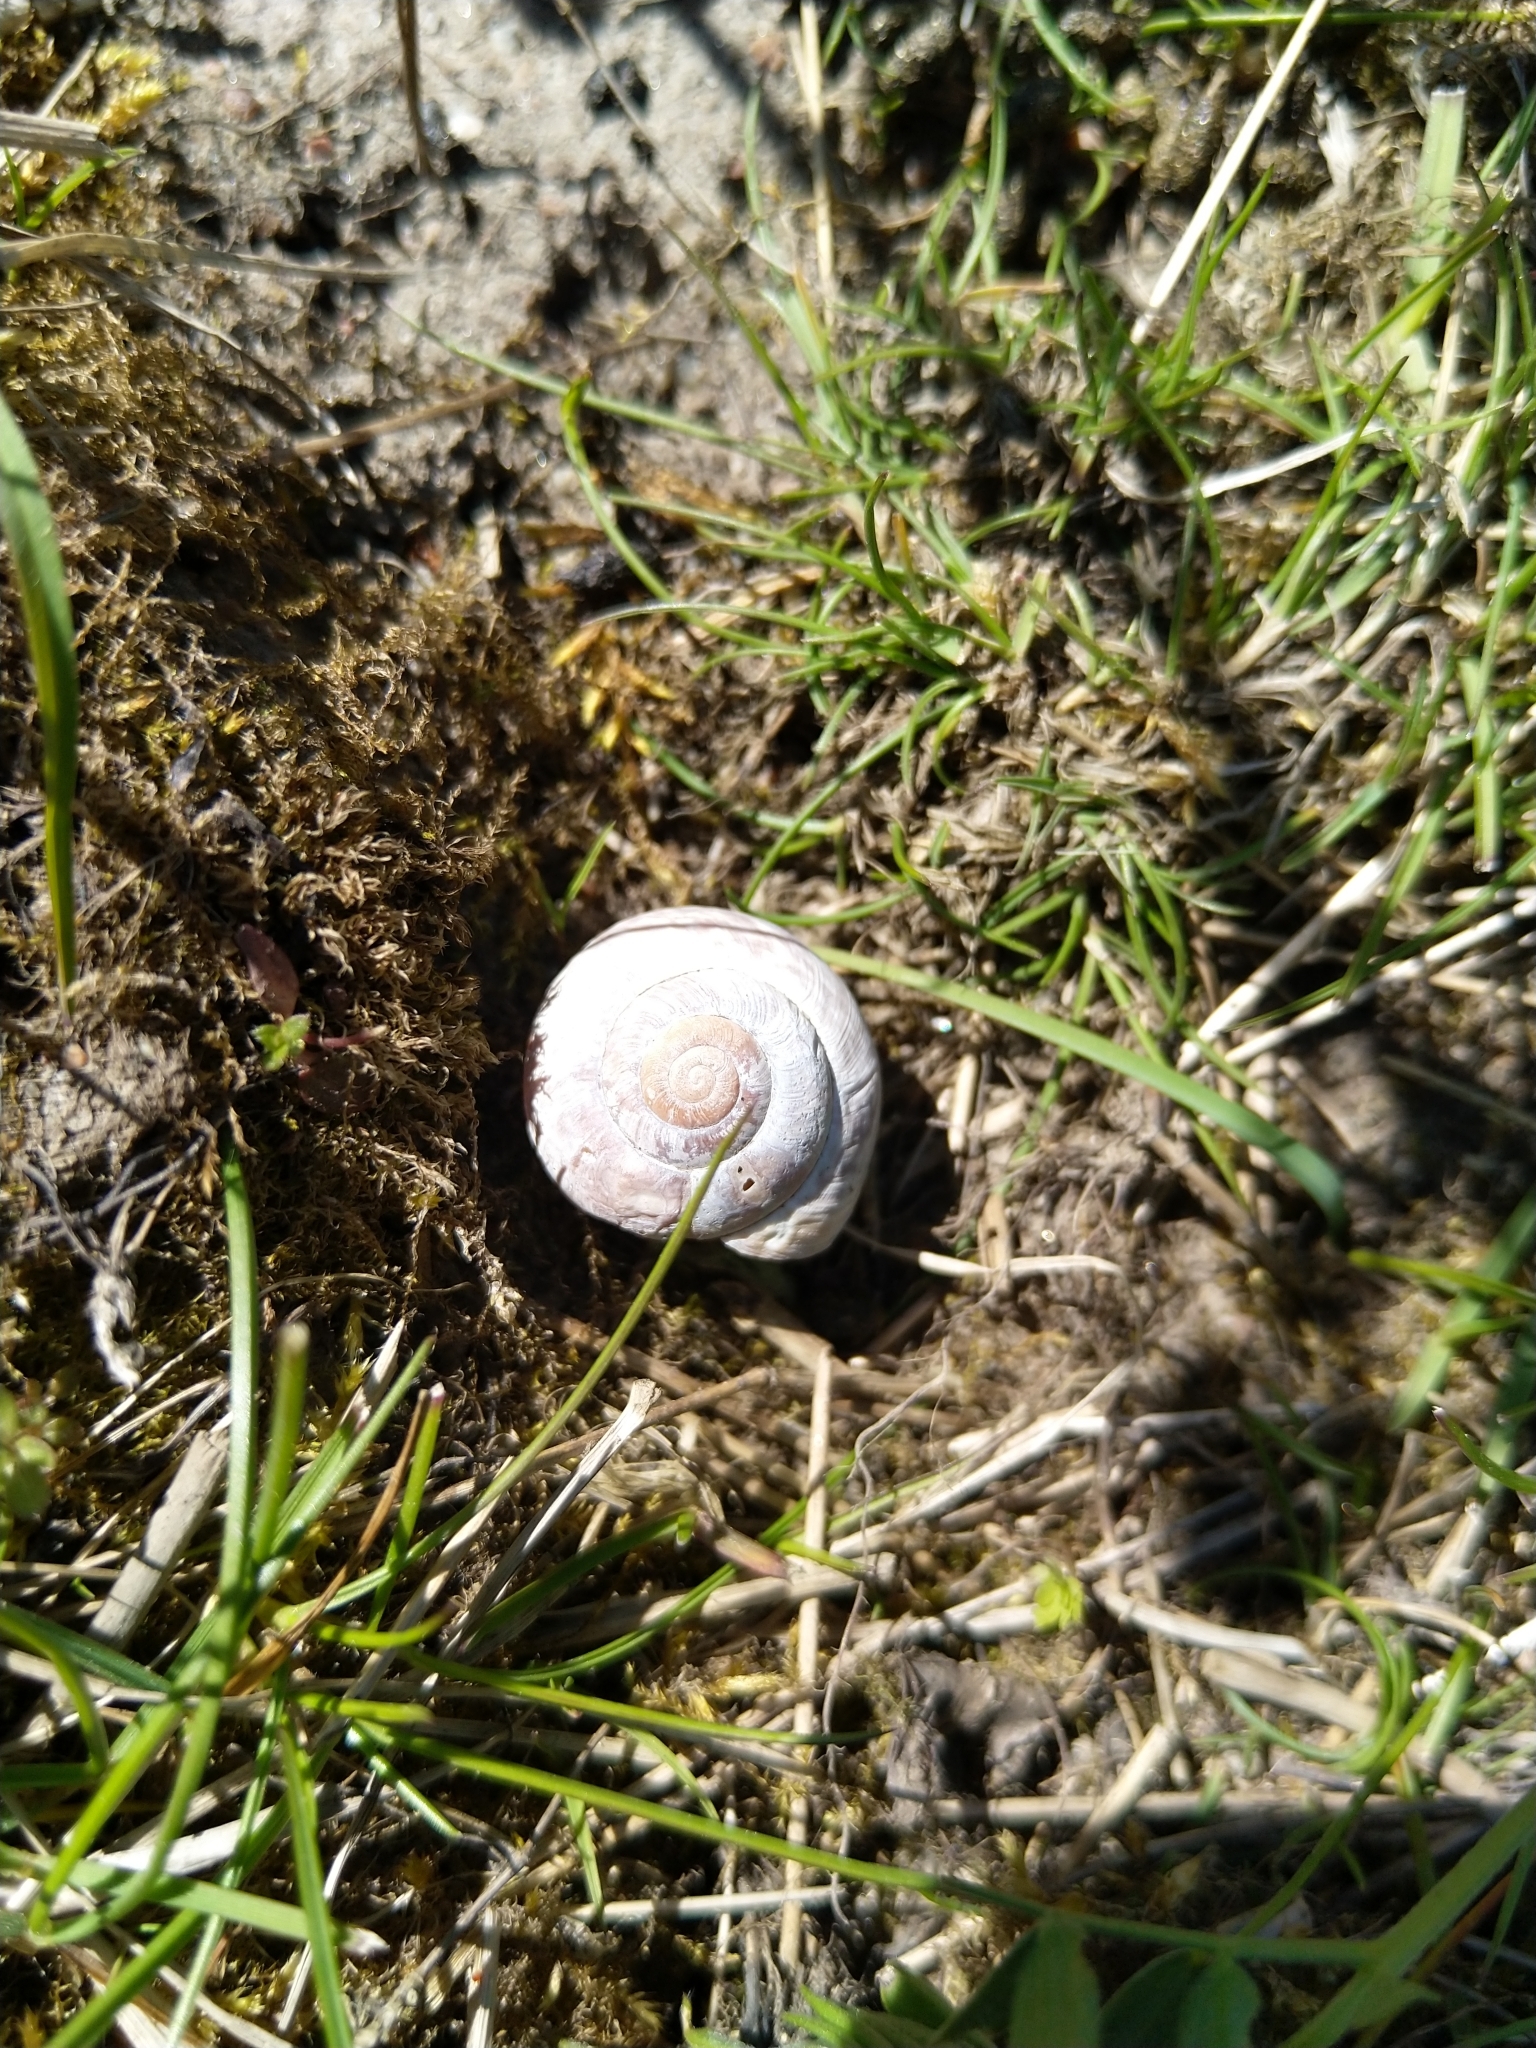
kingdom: Animalia
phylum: Mollusca
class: Gastropoda
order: Stylommatophora
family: Helicidae
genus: Arianta
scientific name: Arianta arbustorum
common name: Copse snail
